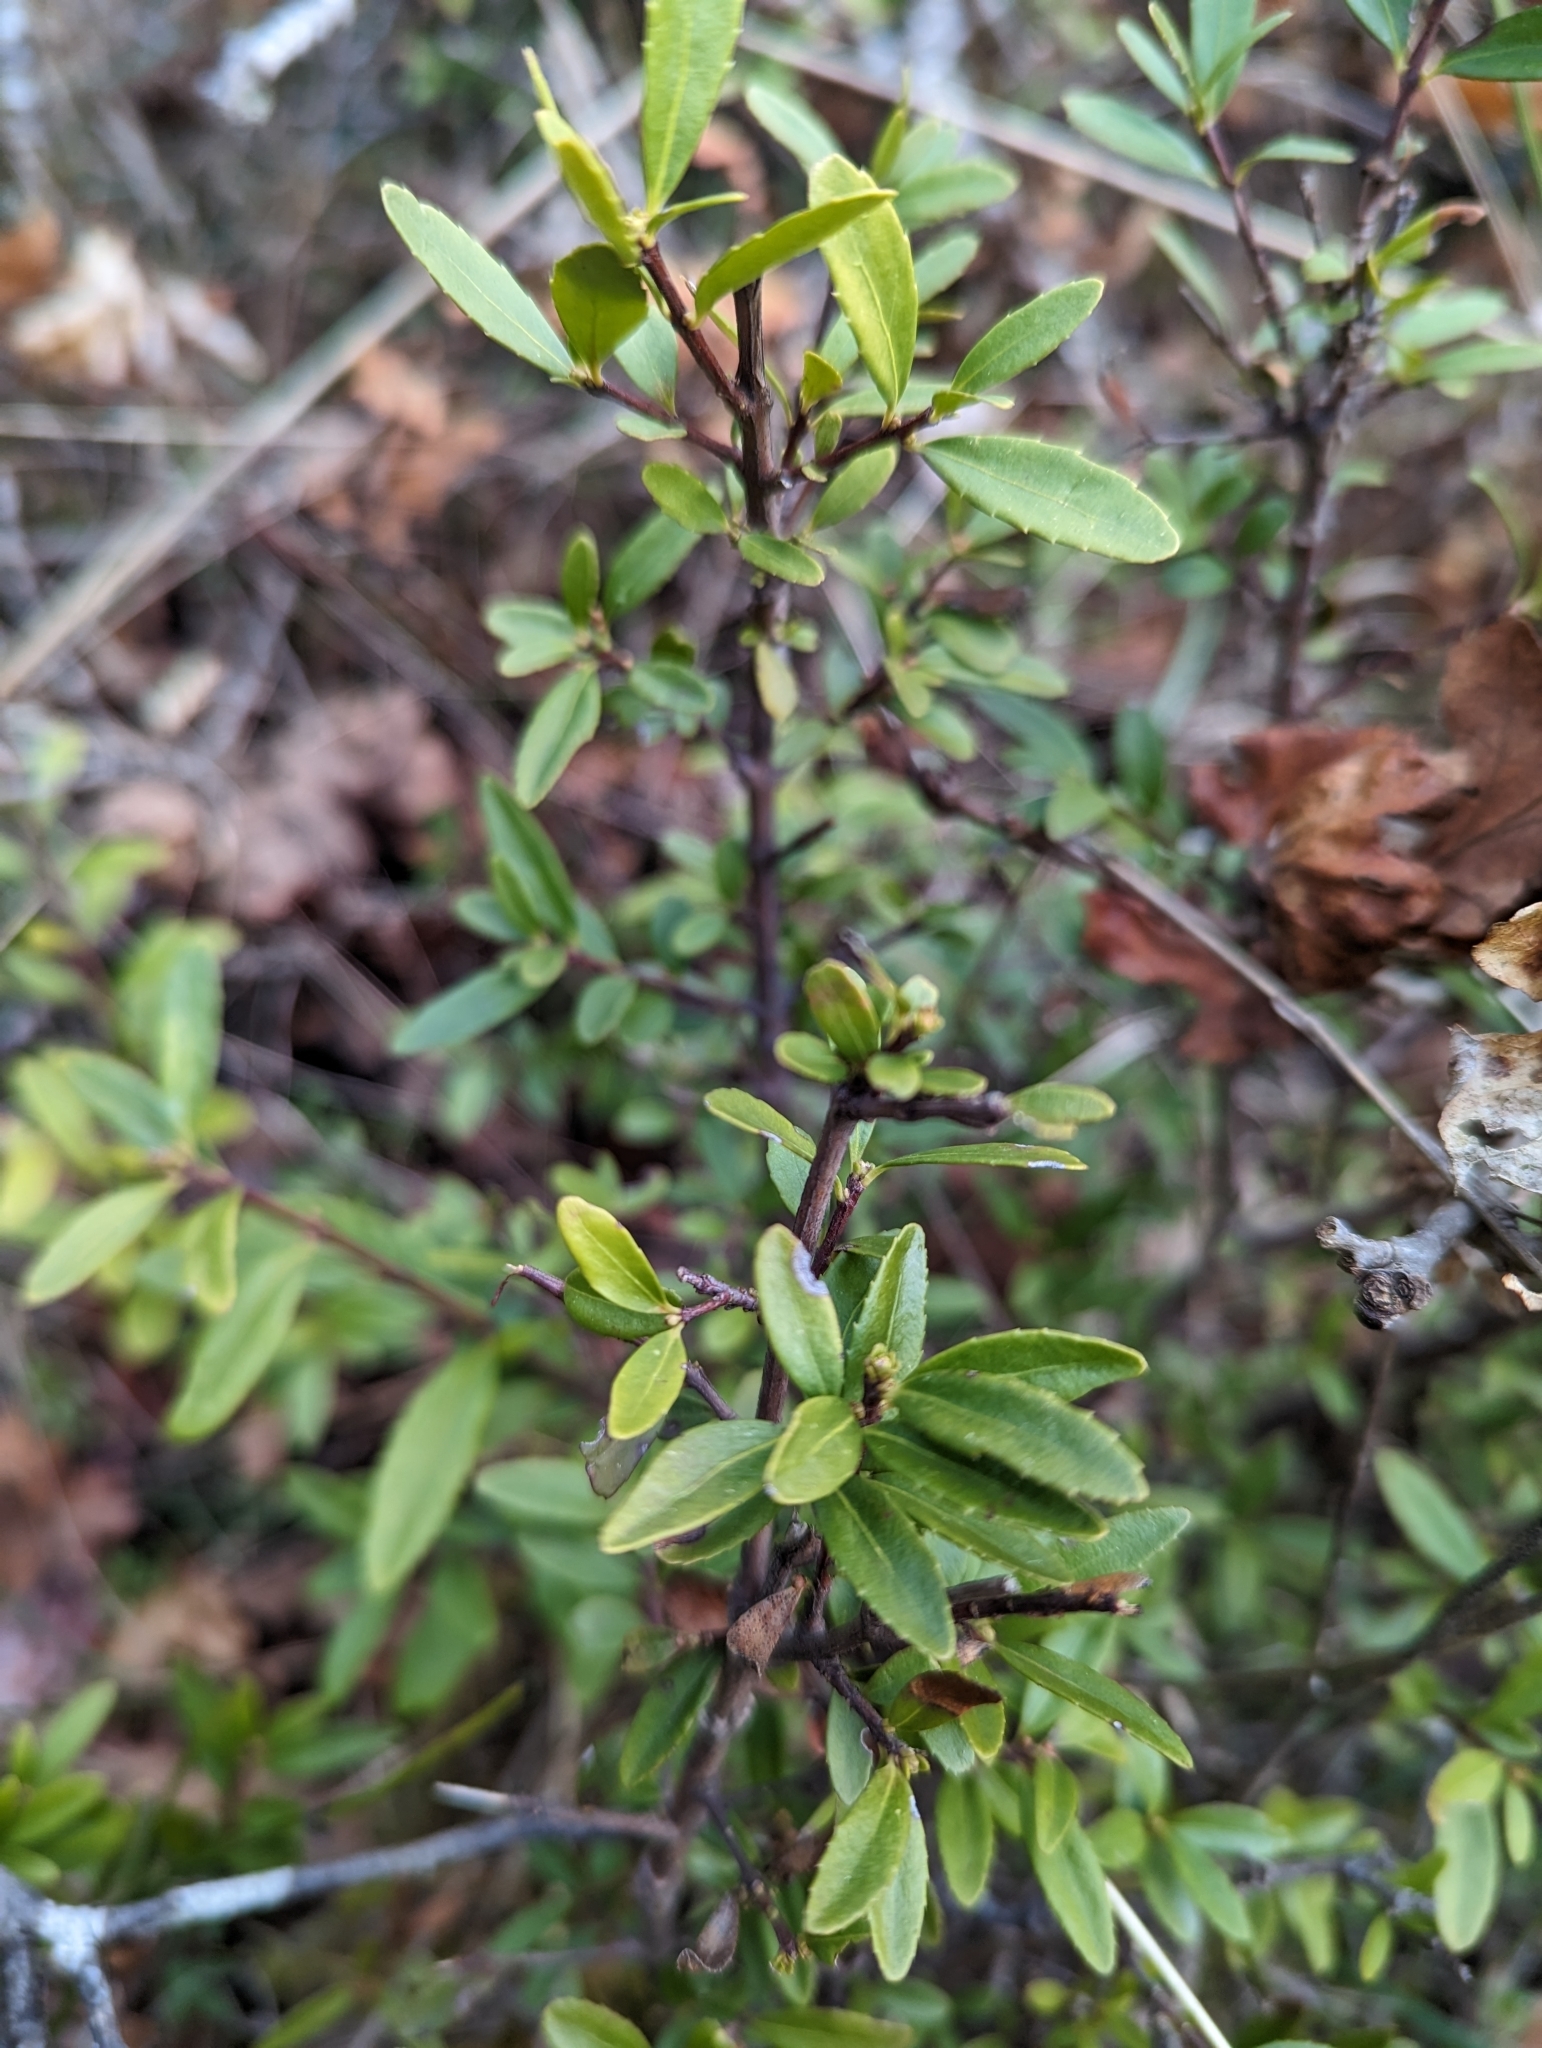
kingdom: Plantae
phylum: Tracheophyta
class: Magnoliopsida
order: Celastrales
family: Celastraceae
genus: Paxistima
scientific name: Paxistima myrsinites
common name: Mountain-lover
